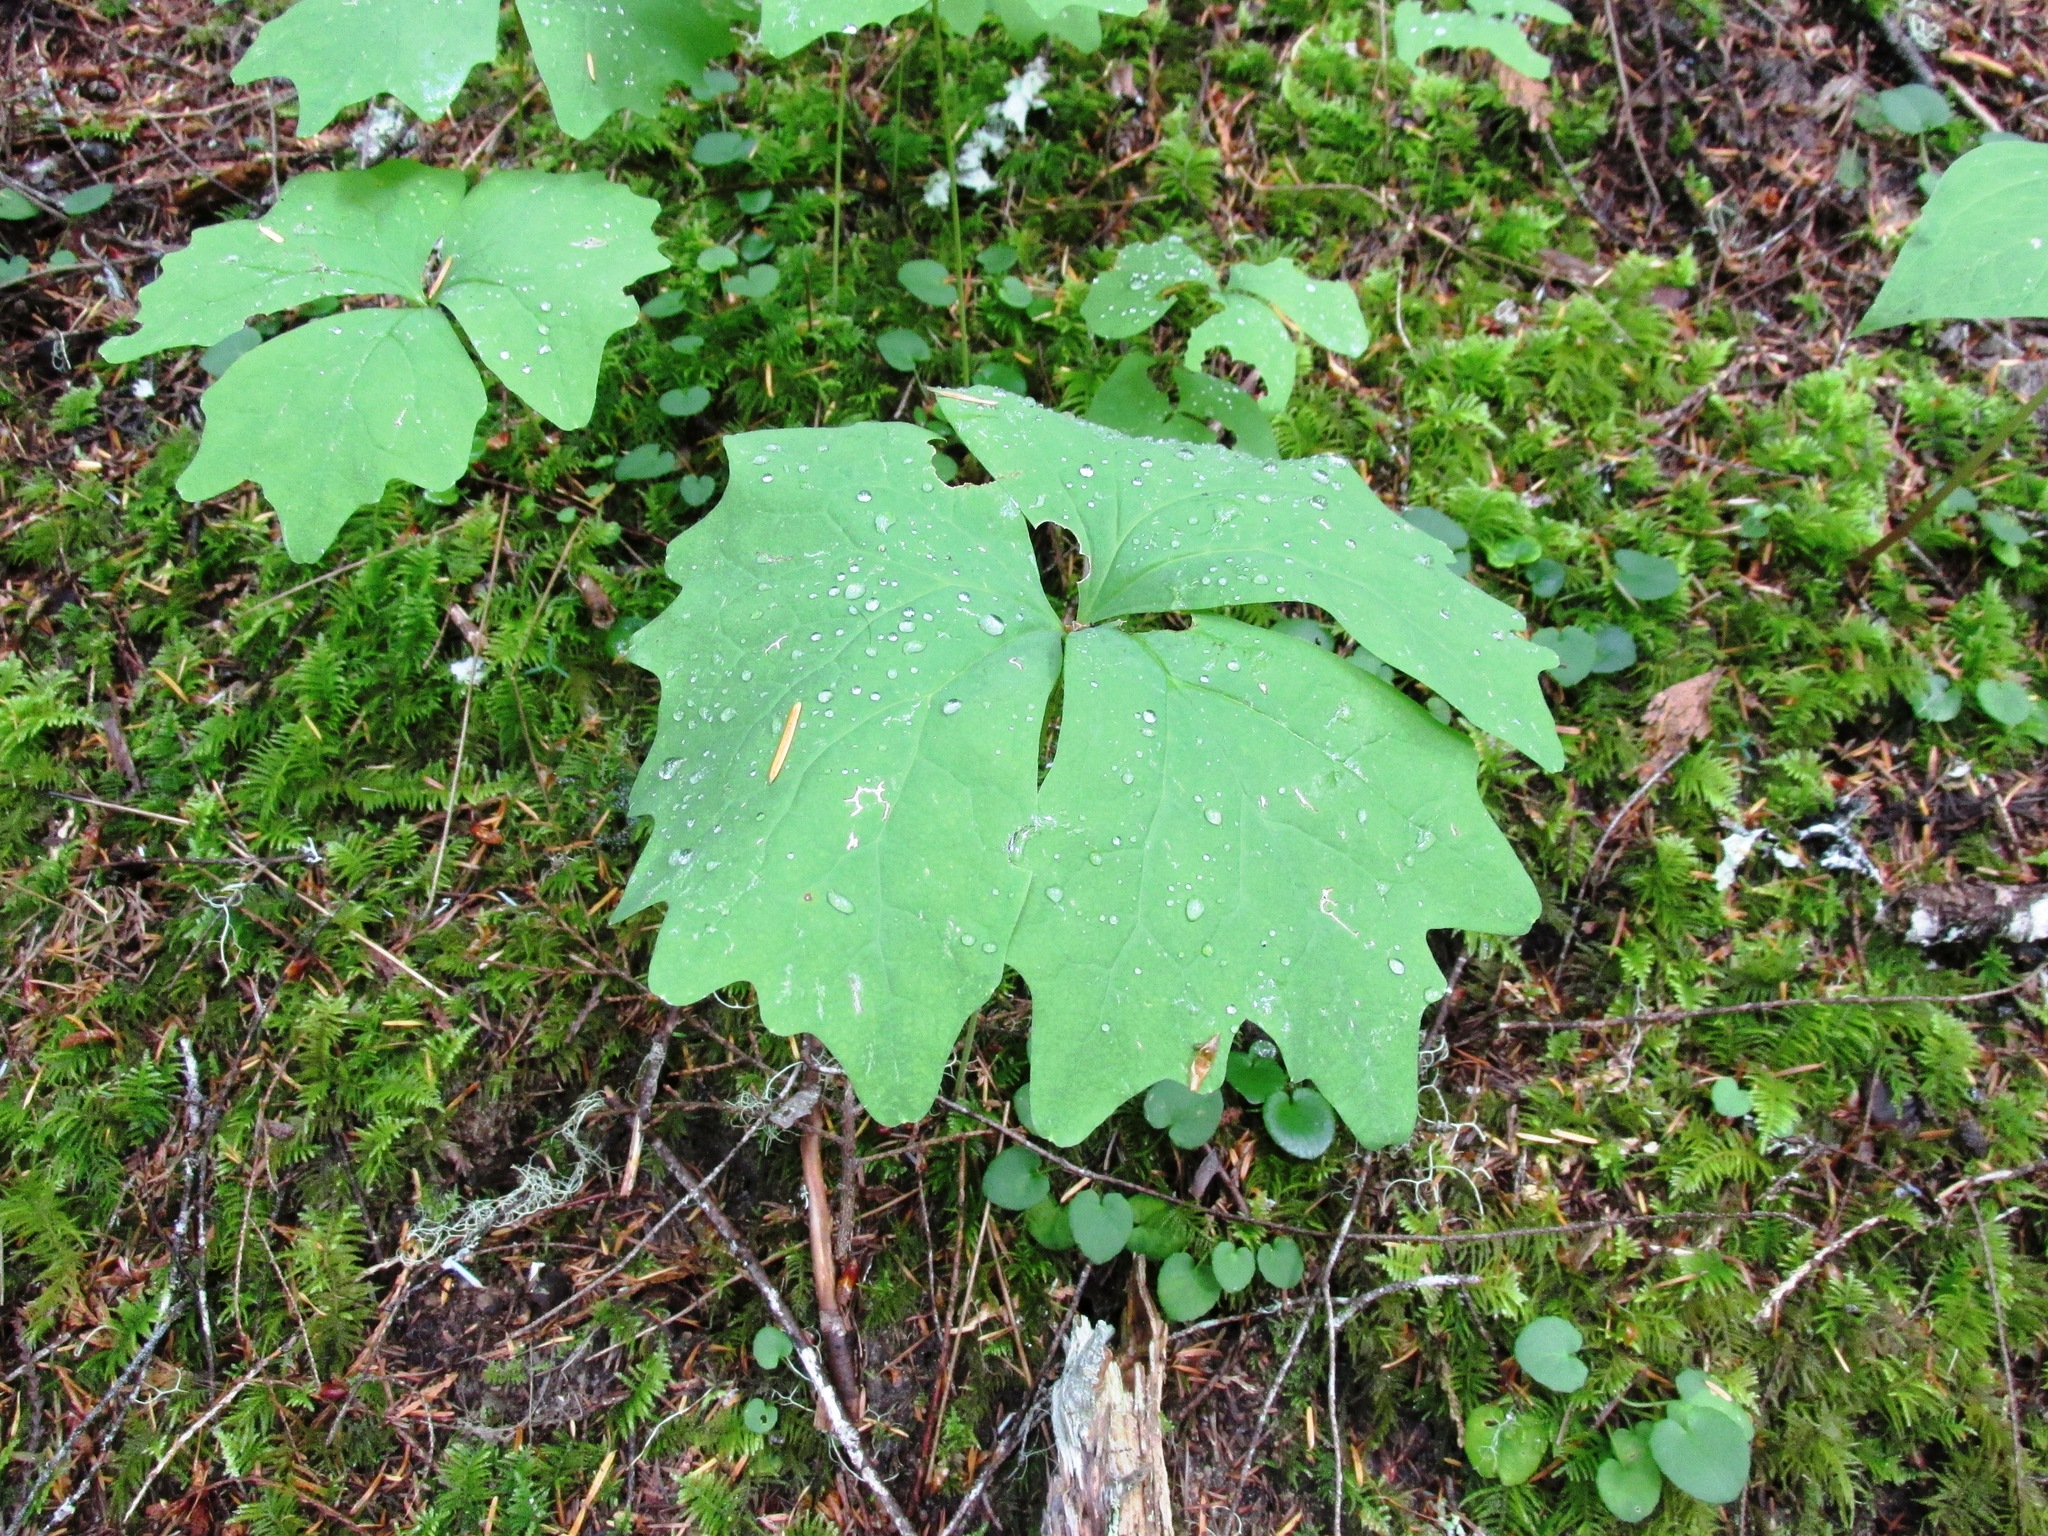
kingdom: Plantae
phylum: Tracheophyta
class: Magnoliopsida
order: Ranunculales
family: Berberidaceae
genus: Achlys
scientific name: Achlys triphylla
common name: Vanilla-leaf
